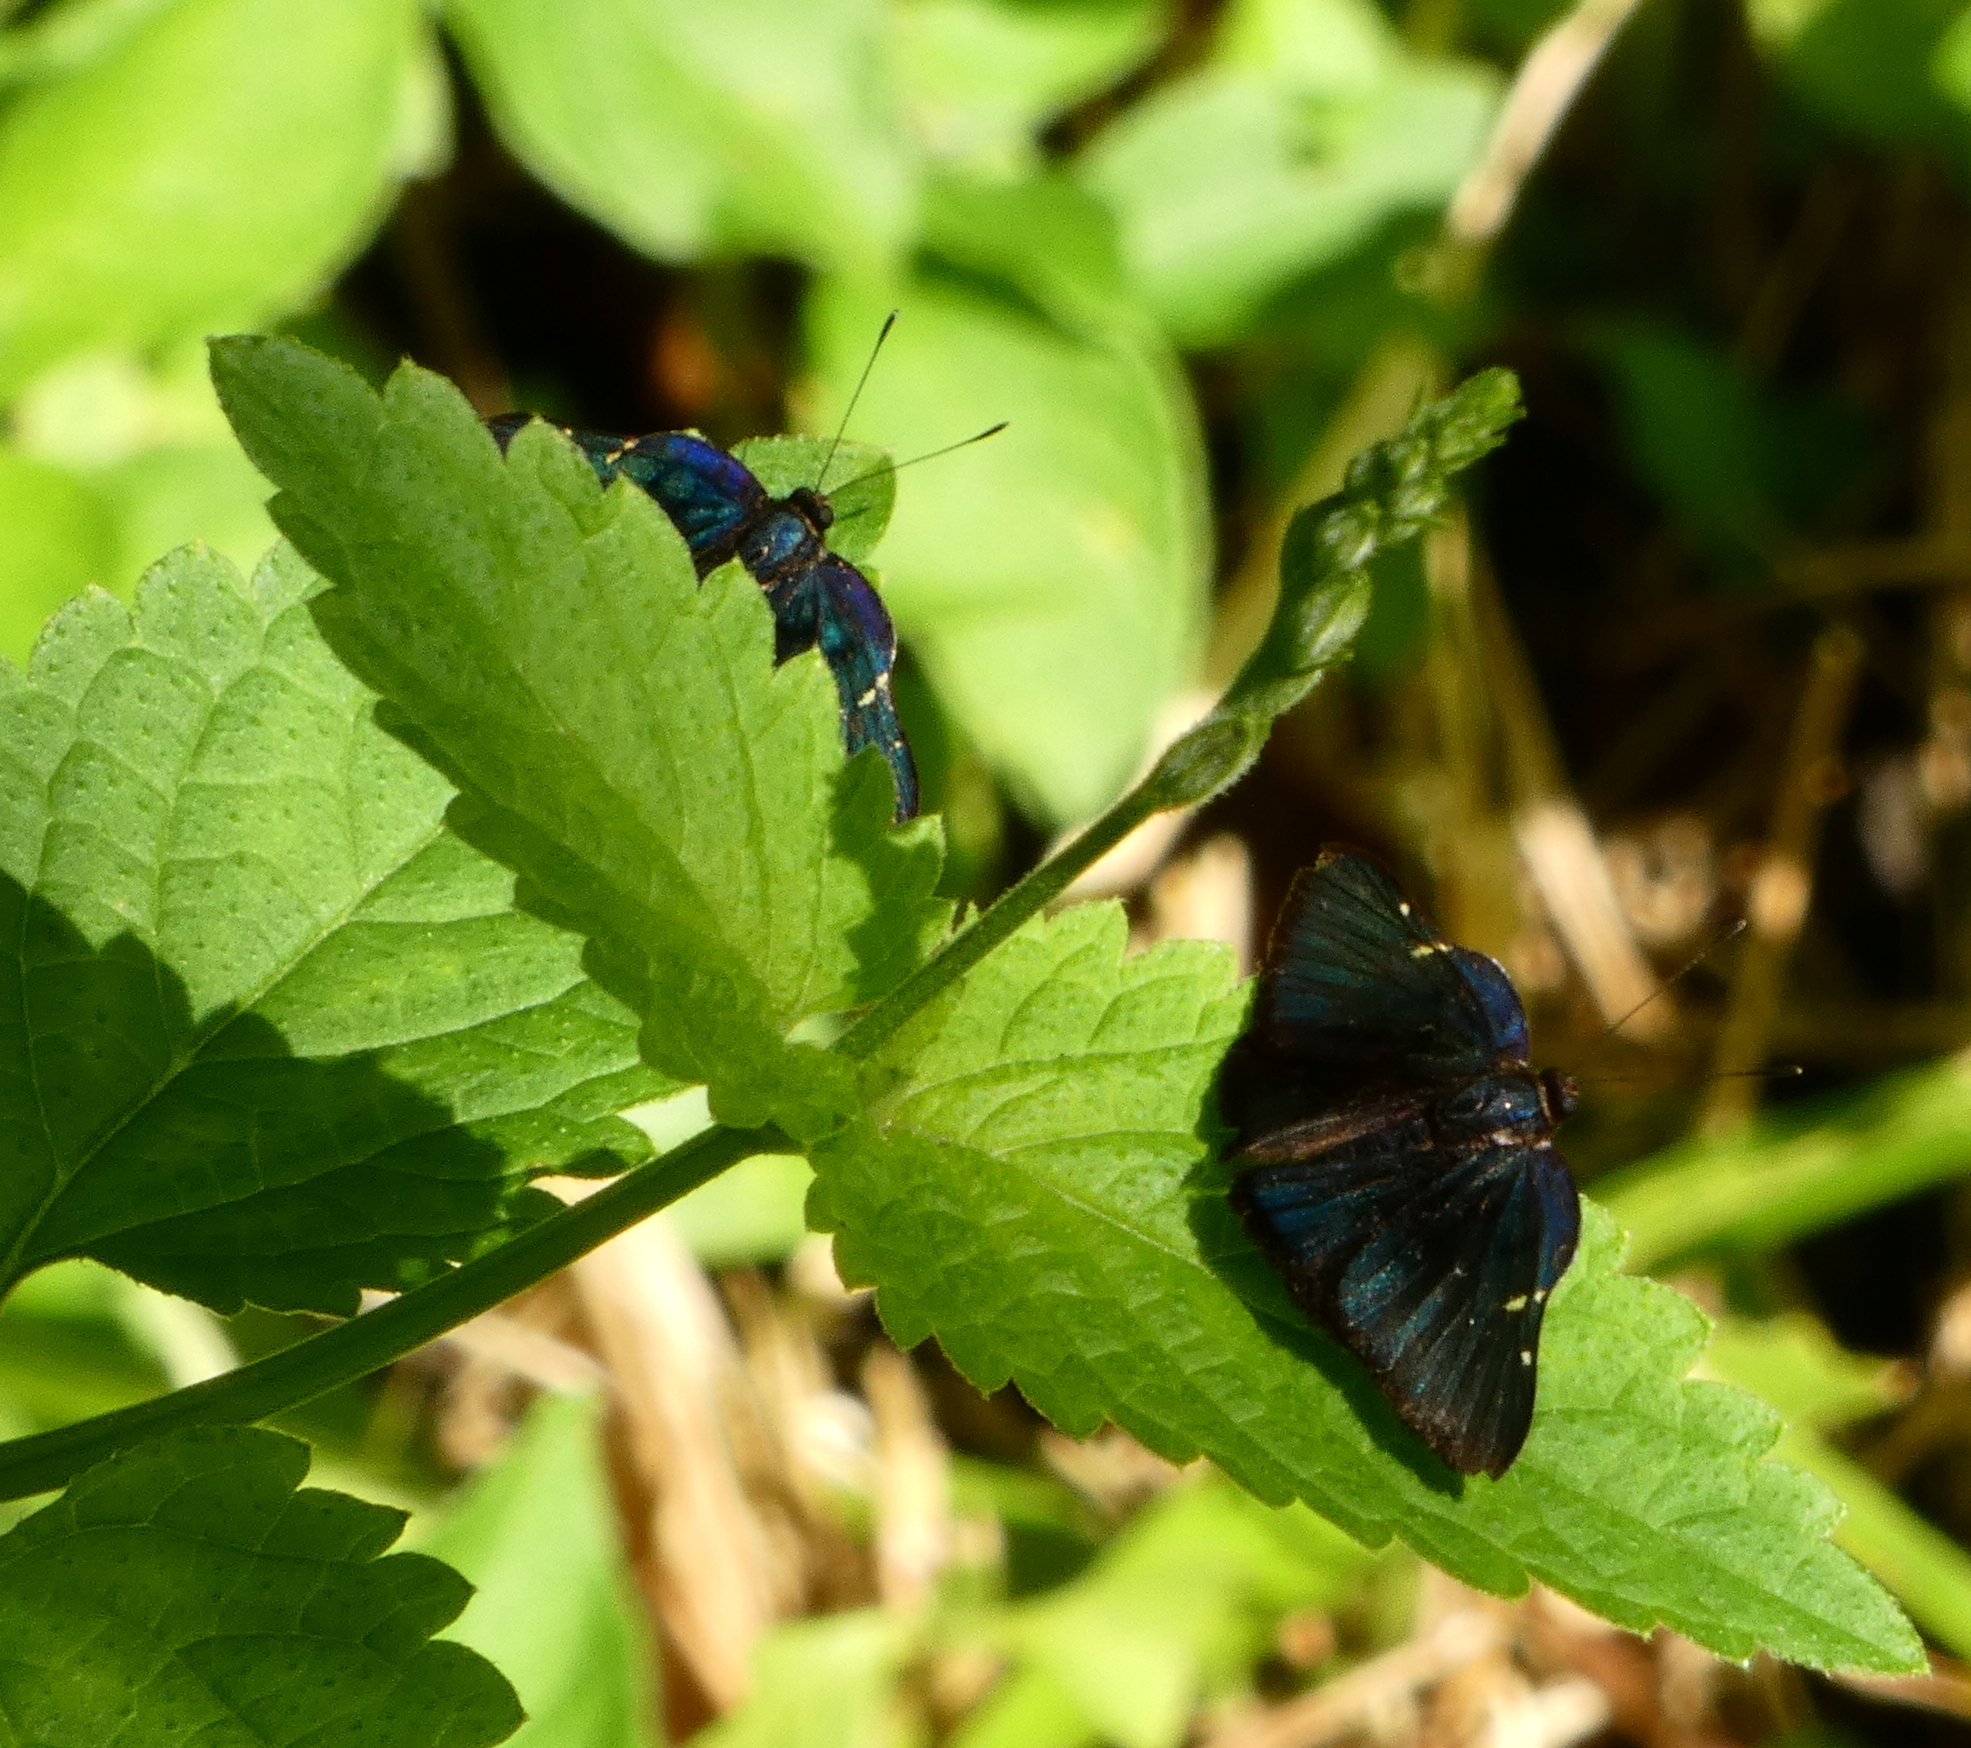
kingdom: Animalia
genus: Symmachia
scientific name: Symmachia atlantica
